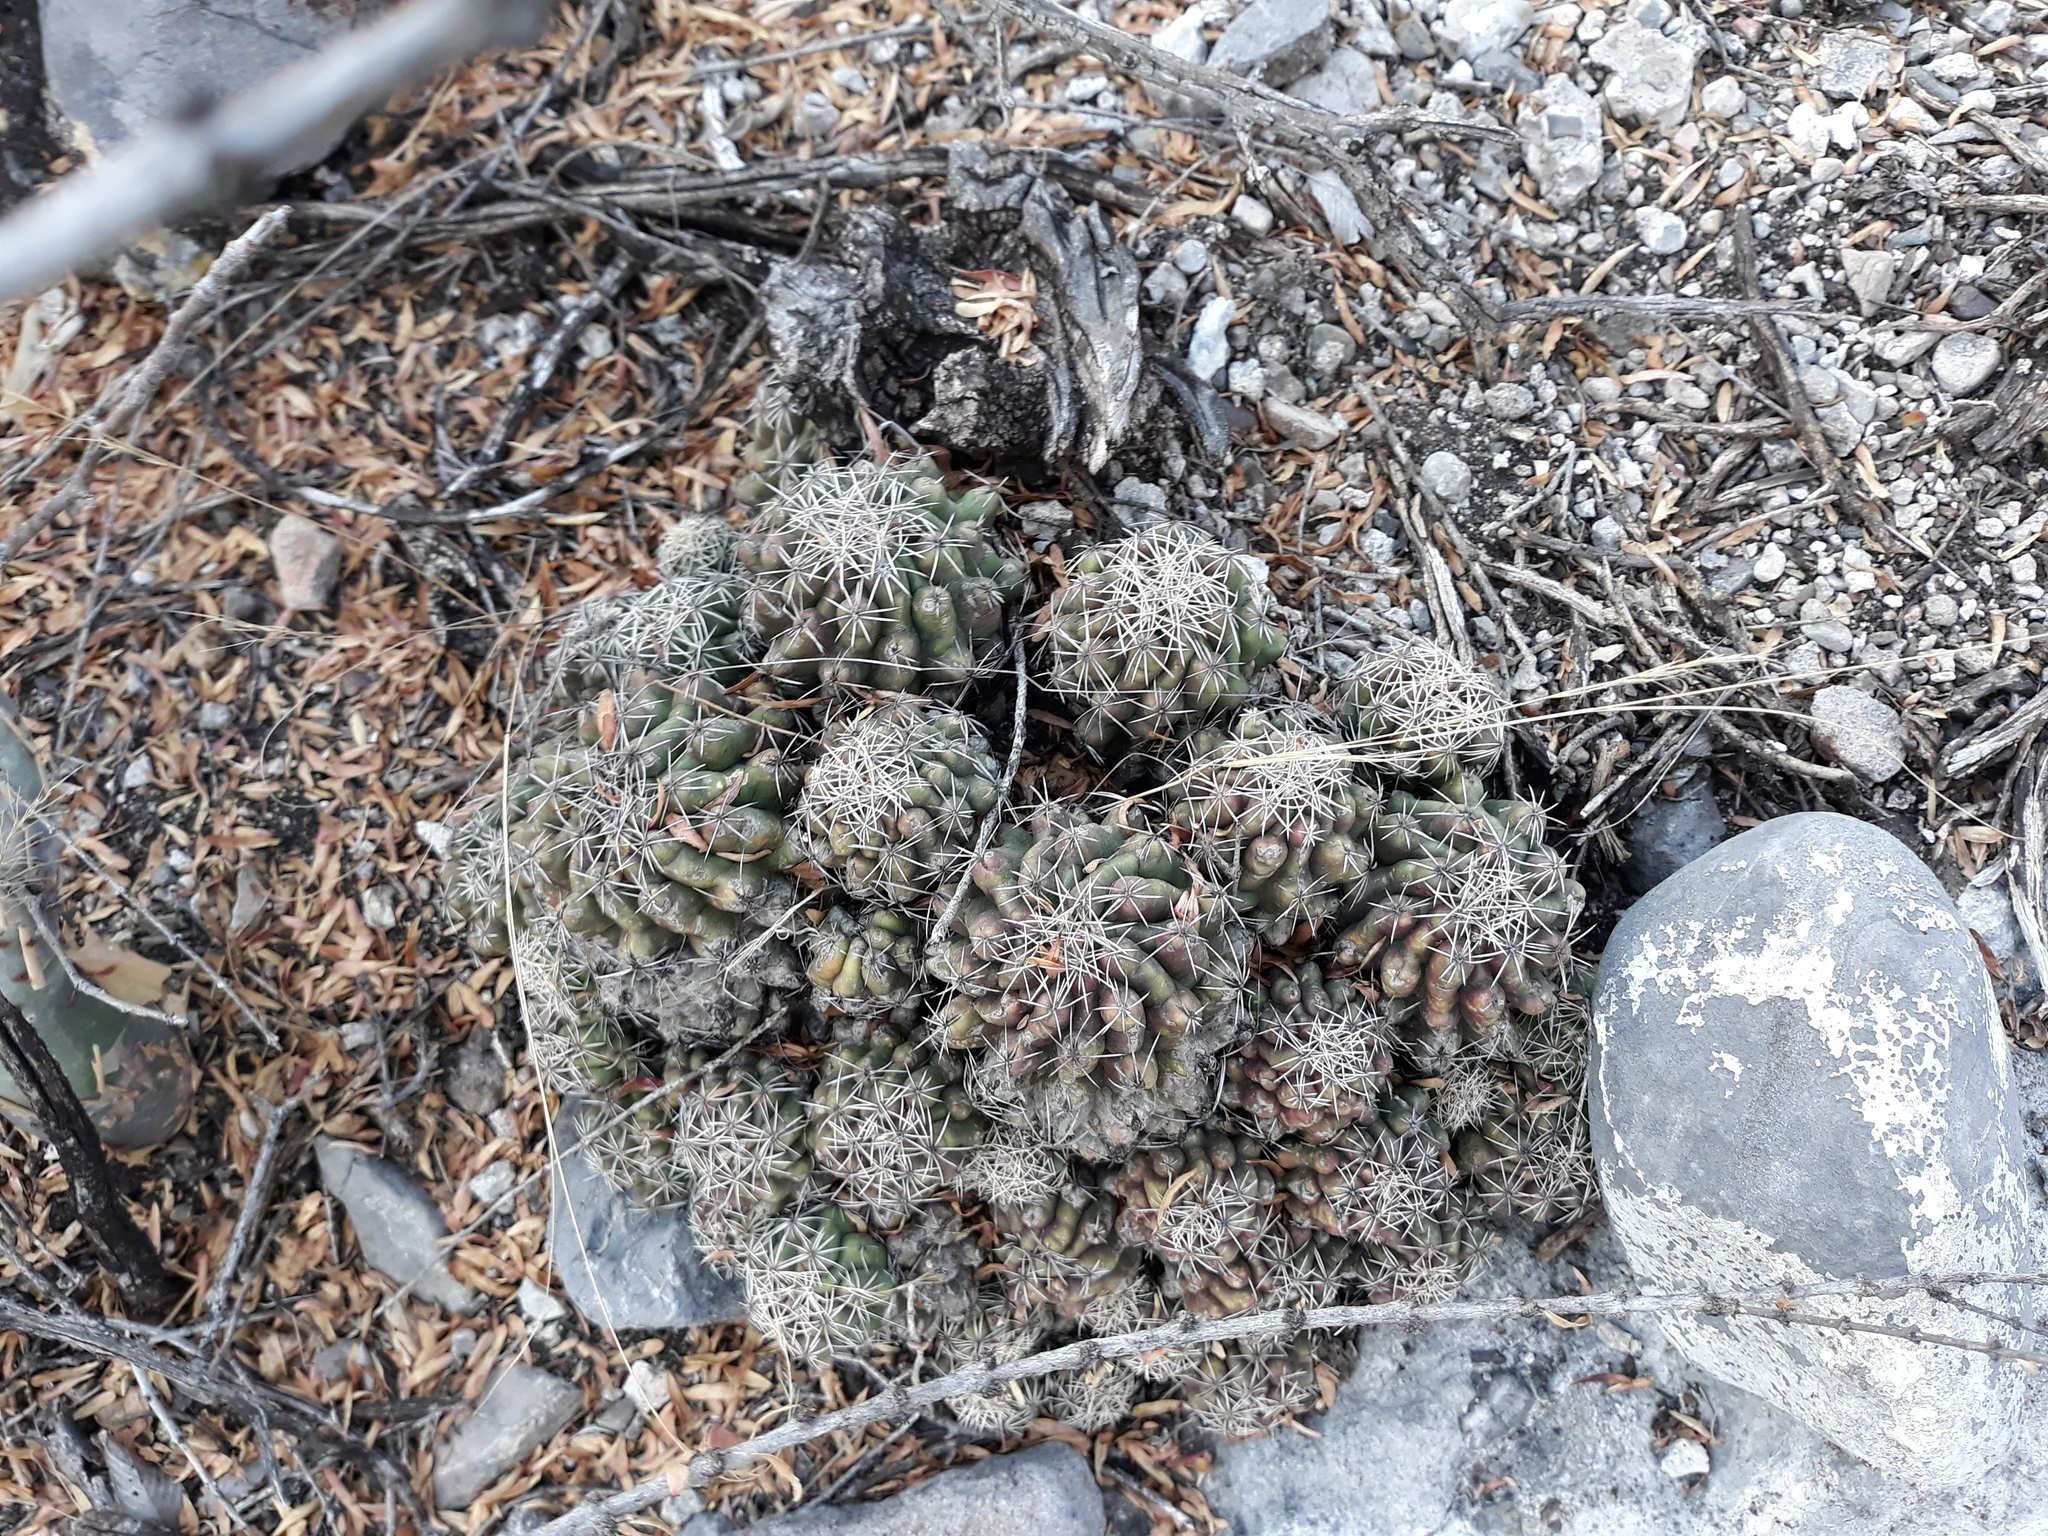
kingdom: Plantae
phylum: Tracheophyta
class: Magnoliopsida
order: Caryophyllales
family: Cactaceae
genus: Thelocactus
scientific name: Thelocactus leucacanthus
